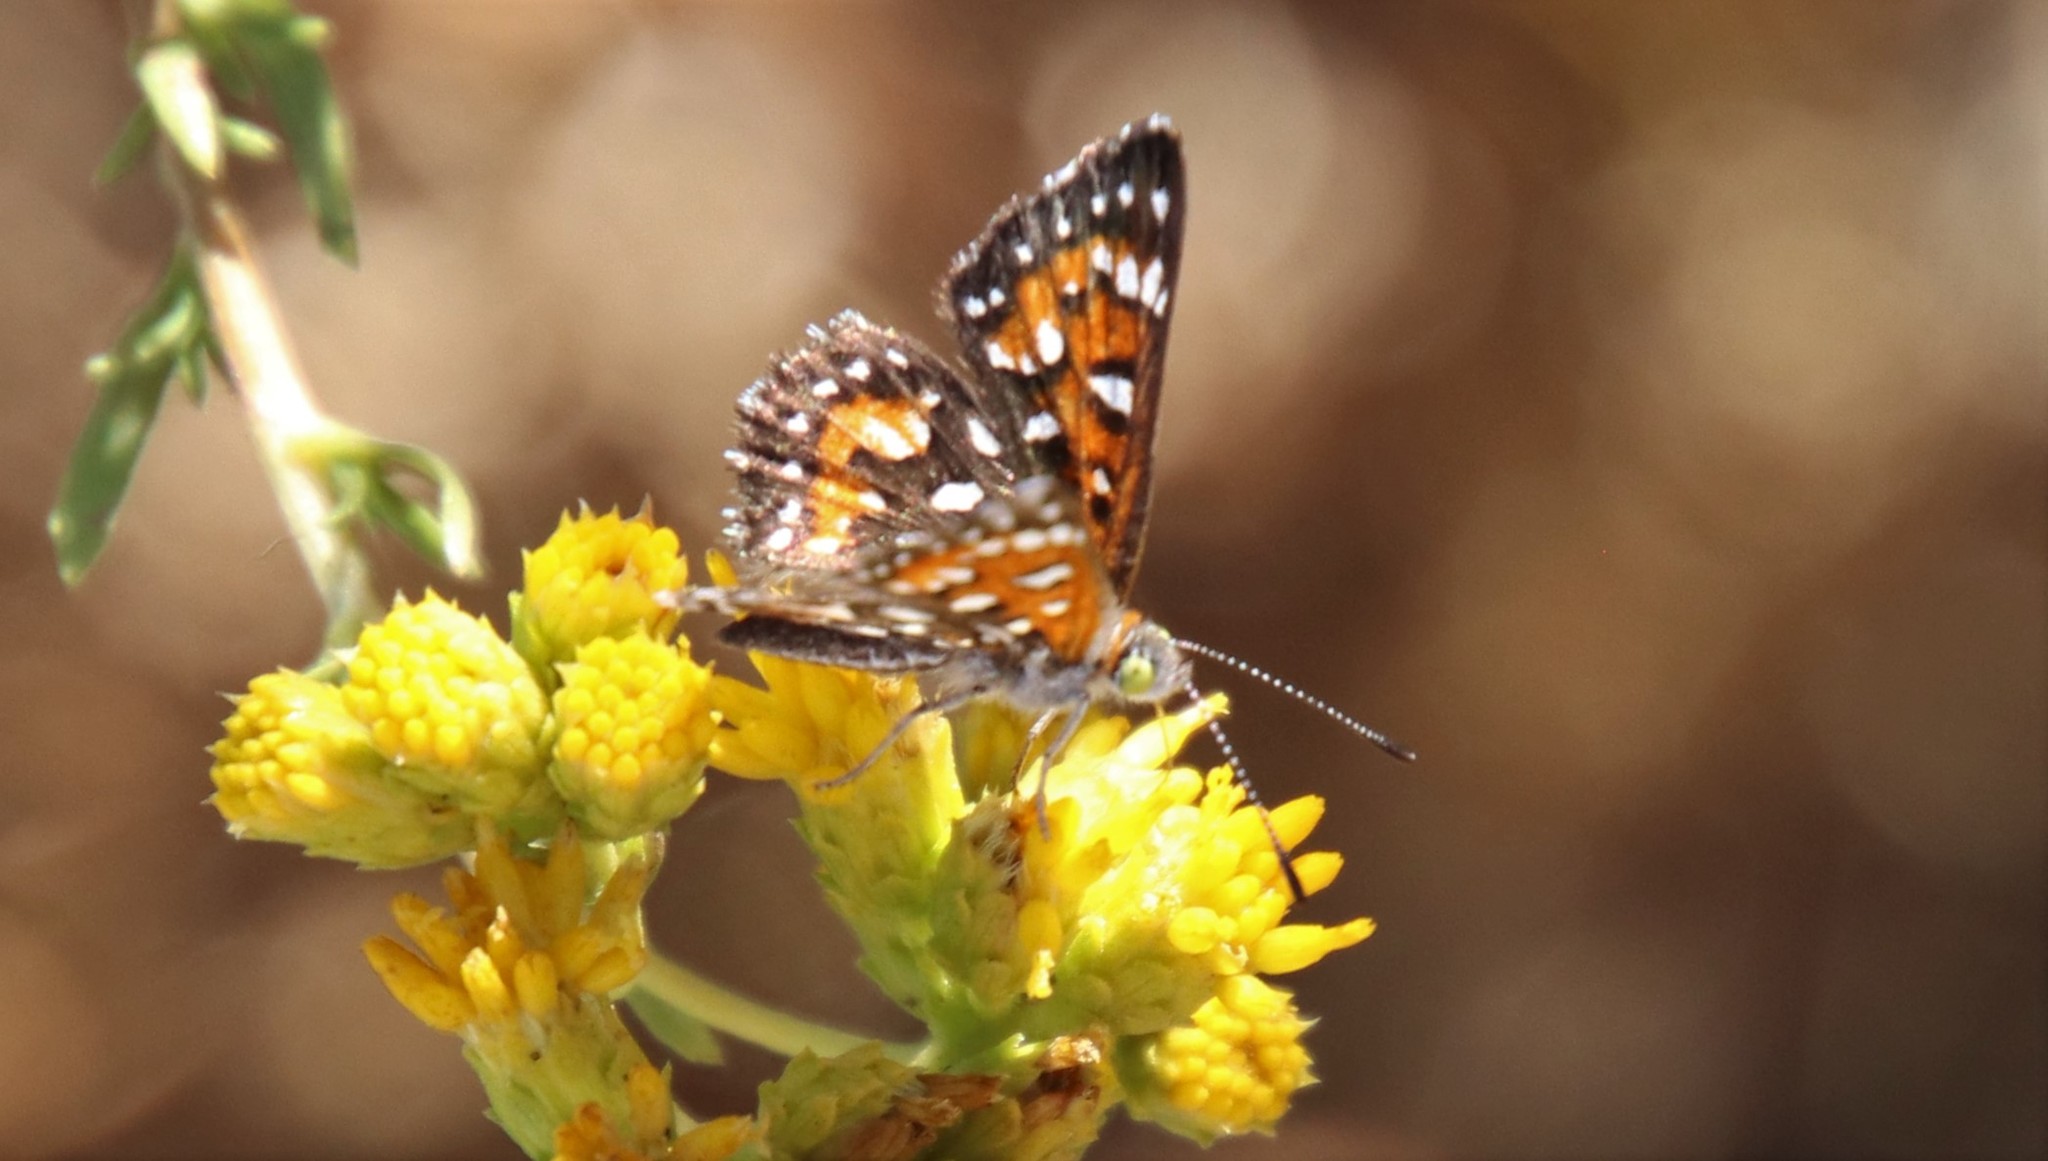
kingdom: Animalia
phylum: Arthropoda
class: Insecta
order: Lepidoptera
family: Riodinidae
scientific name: Riodinidae
